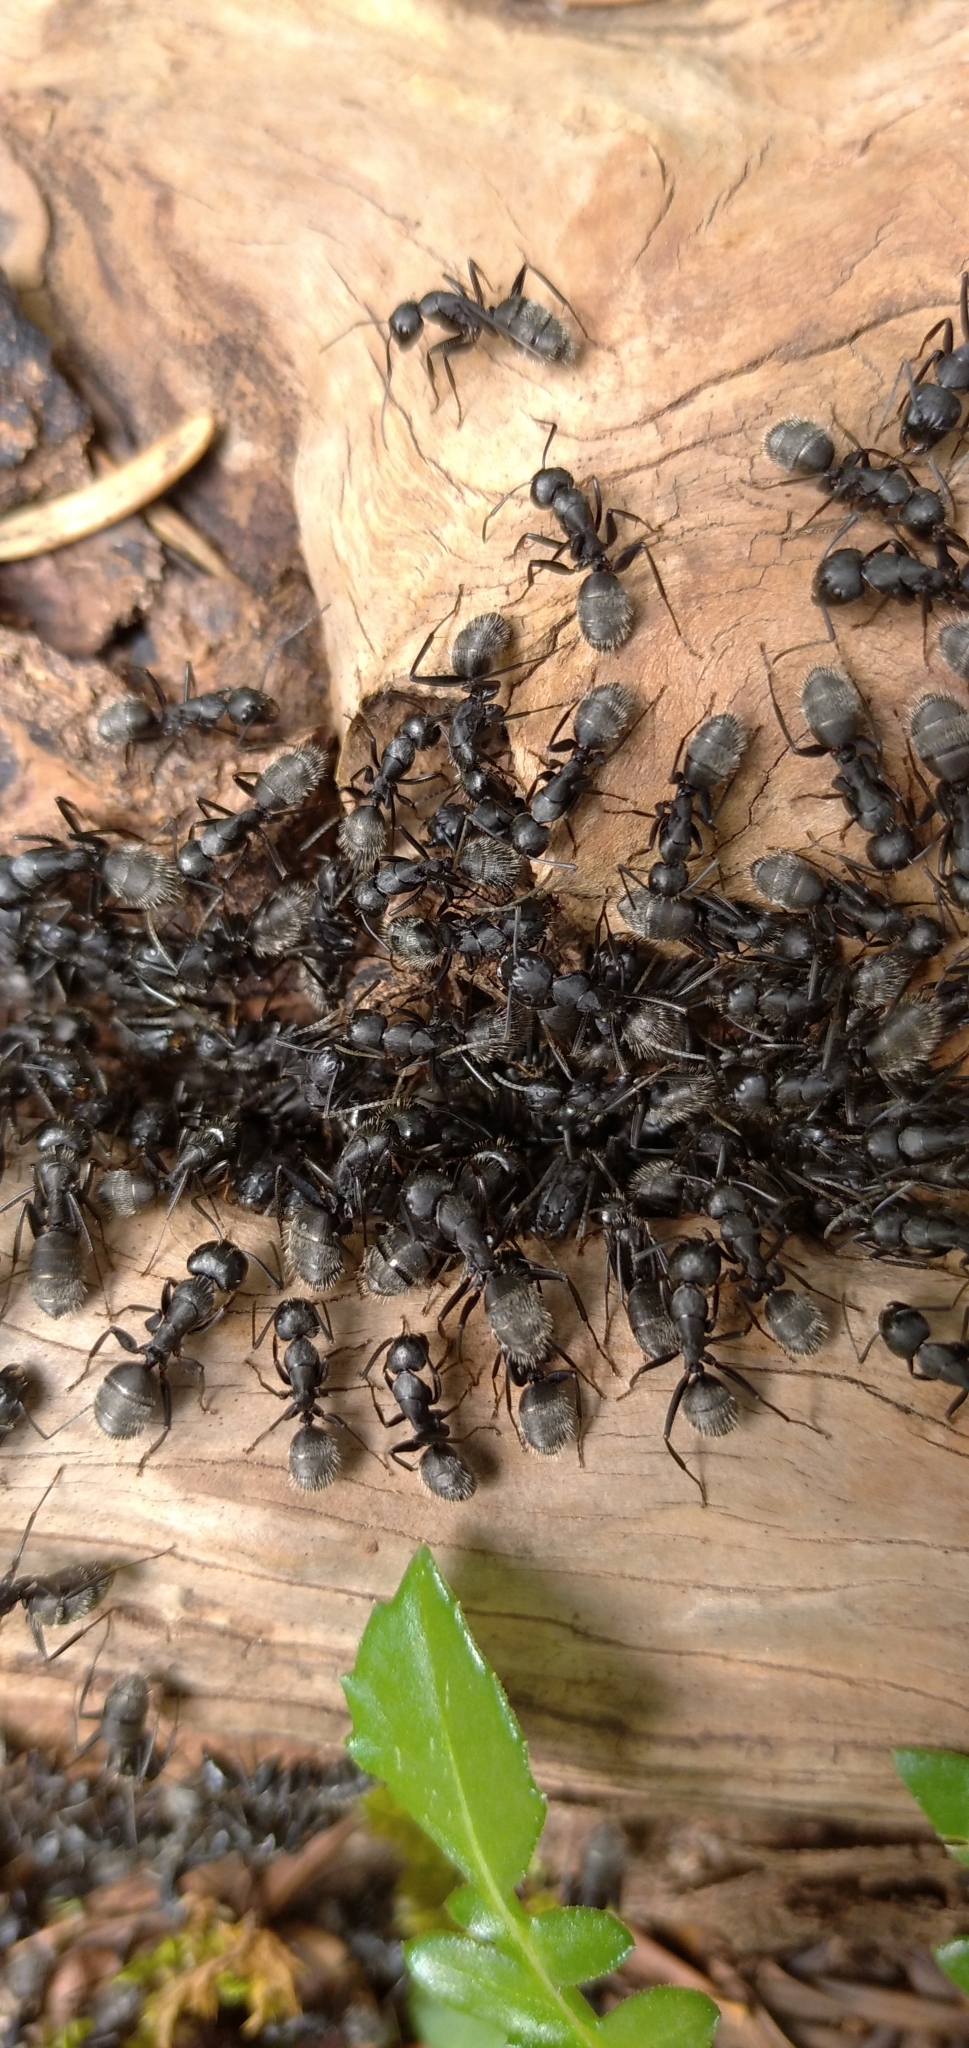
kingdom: Animalia
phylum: Arthropoda
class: Insecta
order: Hymenoptera
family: Formicidae
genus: Camponotus
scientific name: Camponotus vagus
